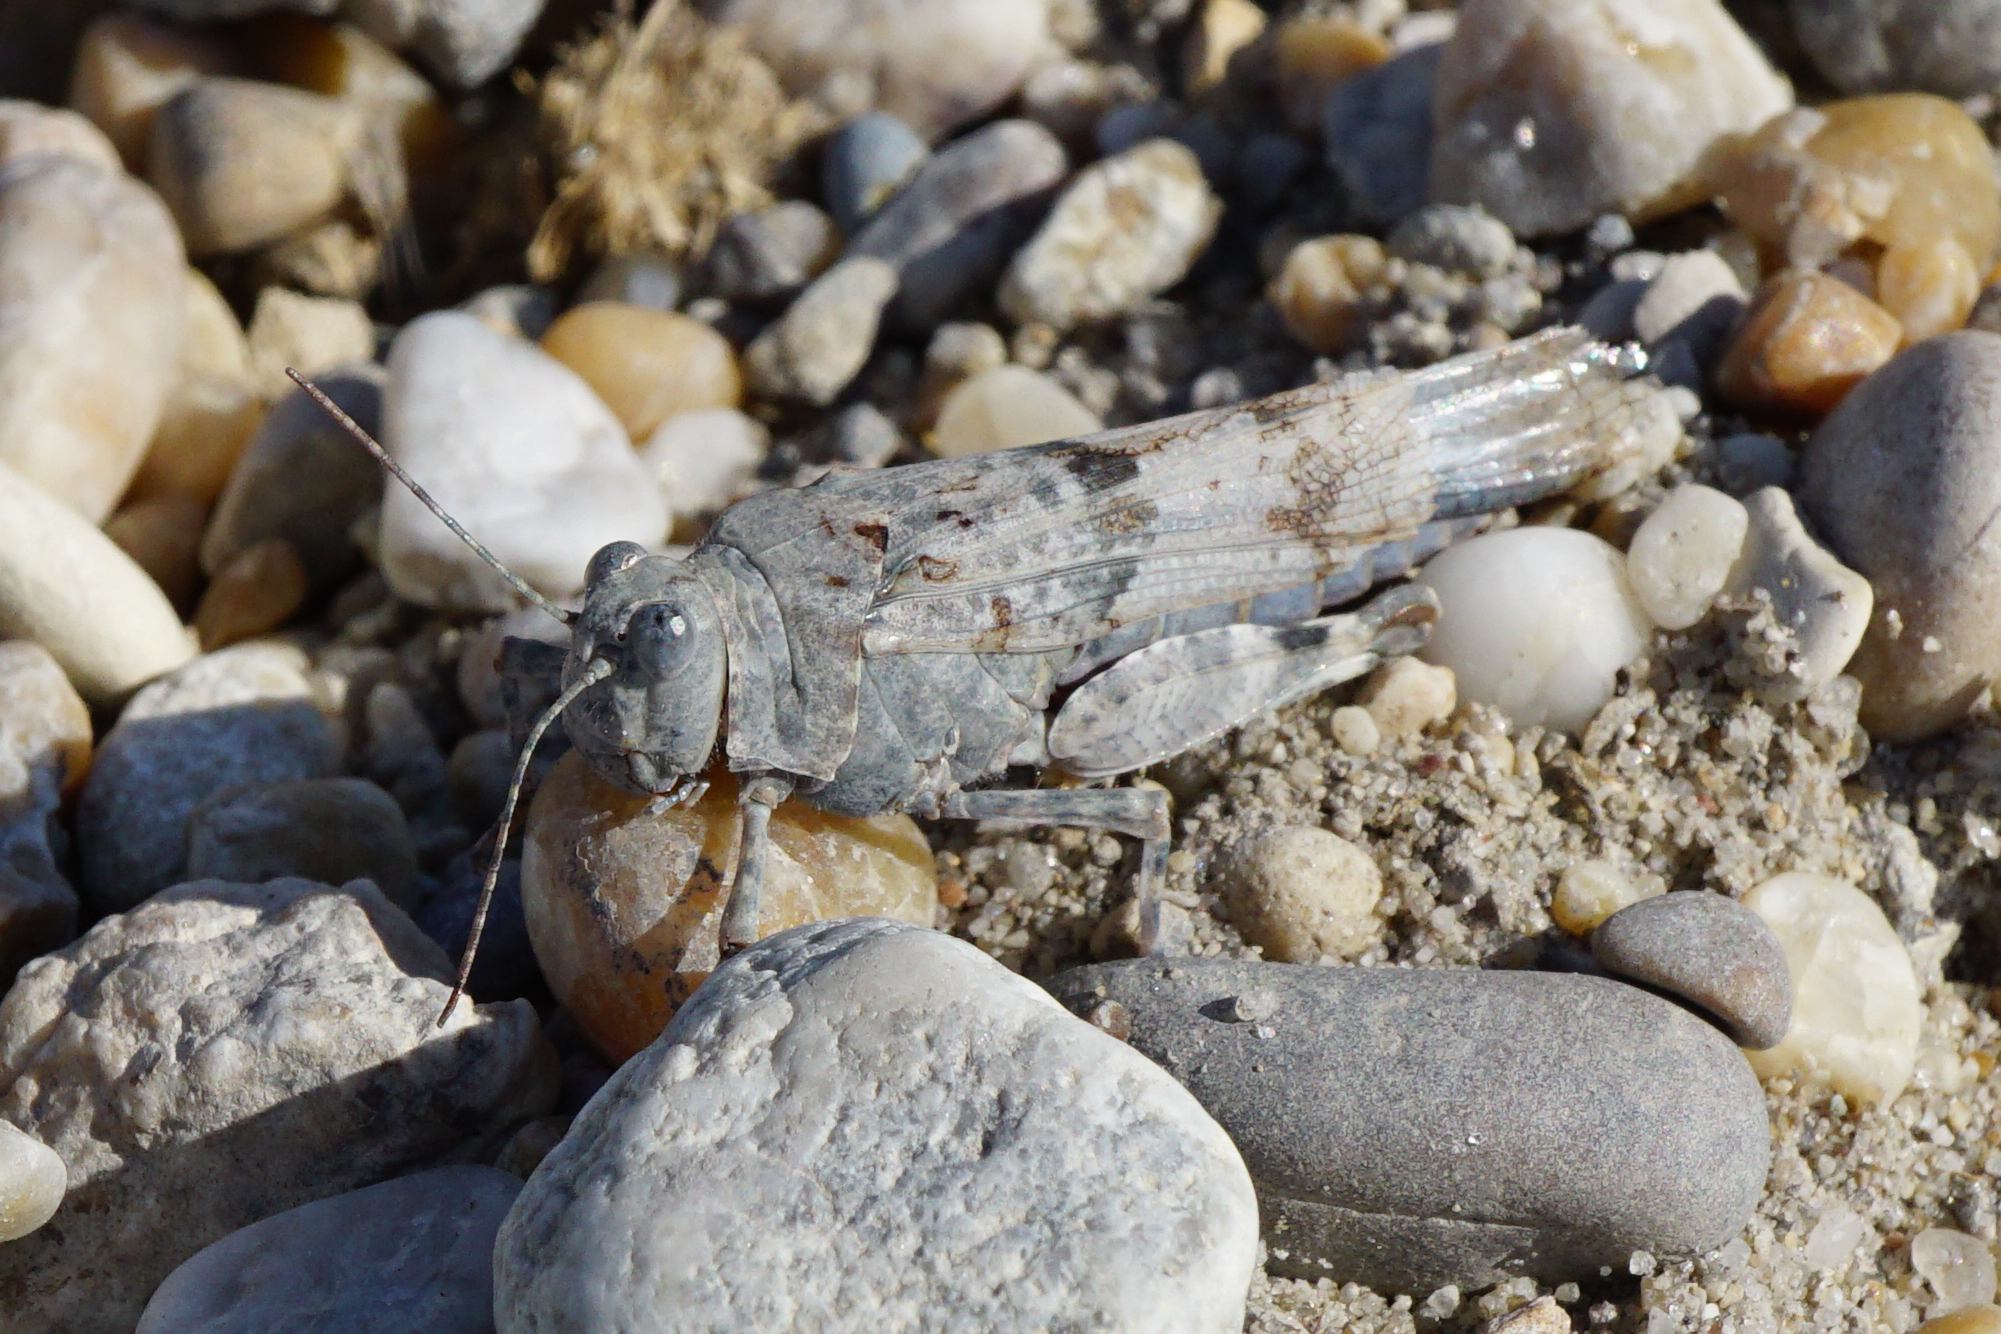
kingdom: Animalia
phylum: Arthropoda
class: Insecta
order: Orthoptera
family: Acrididae
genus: Sphingonotus
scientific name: Sphingonotus caerulans
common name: Blue-winged locust
